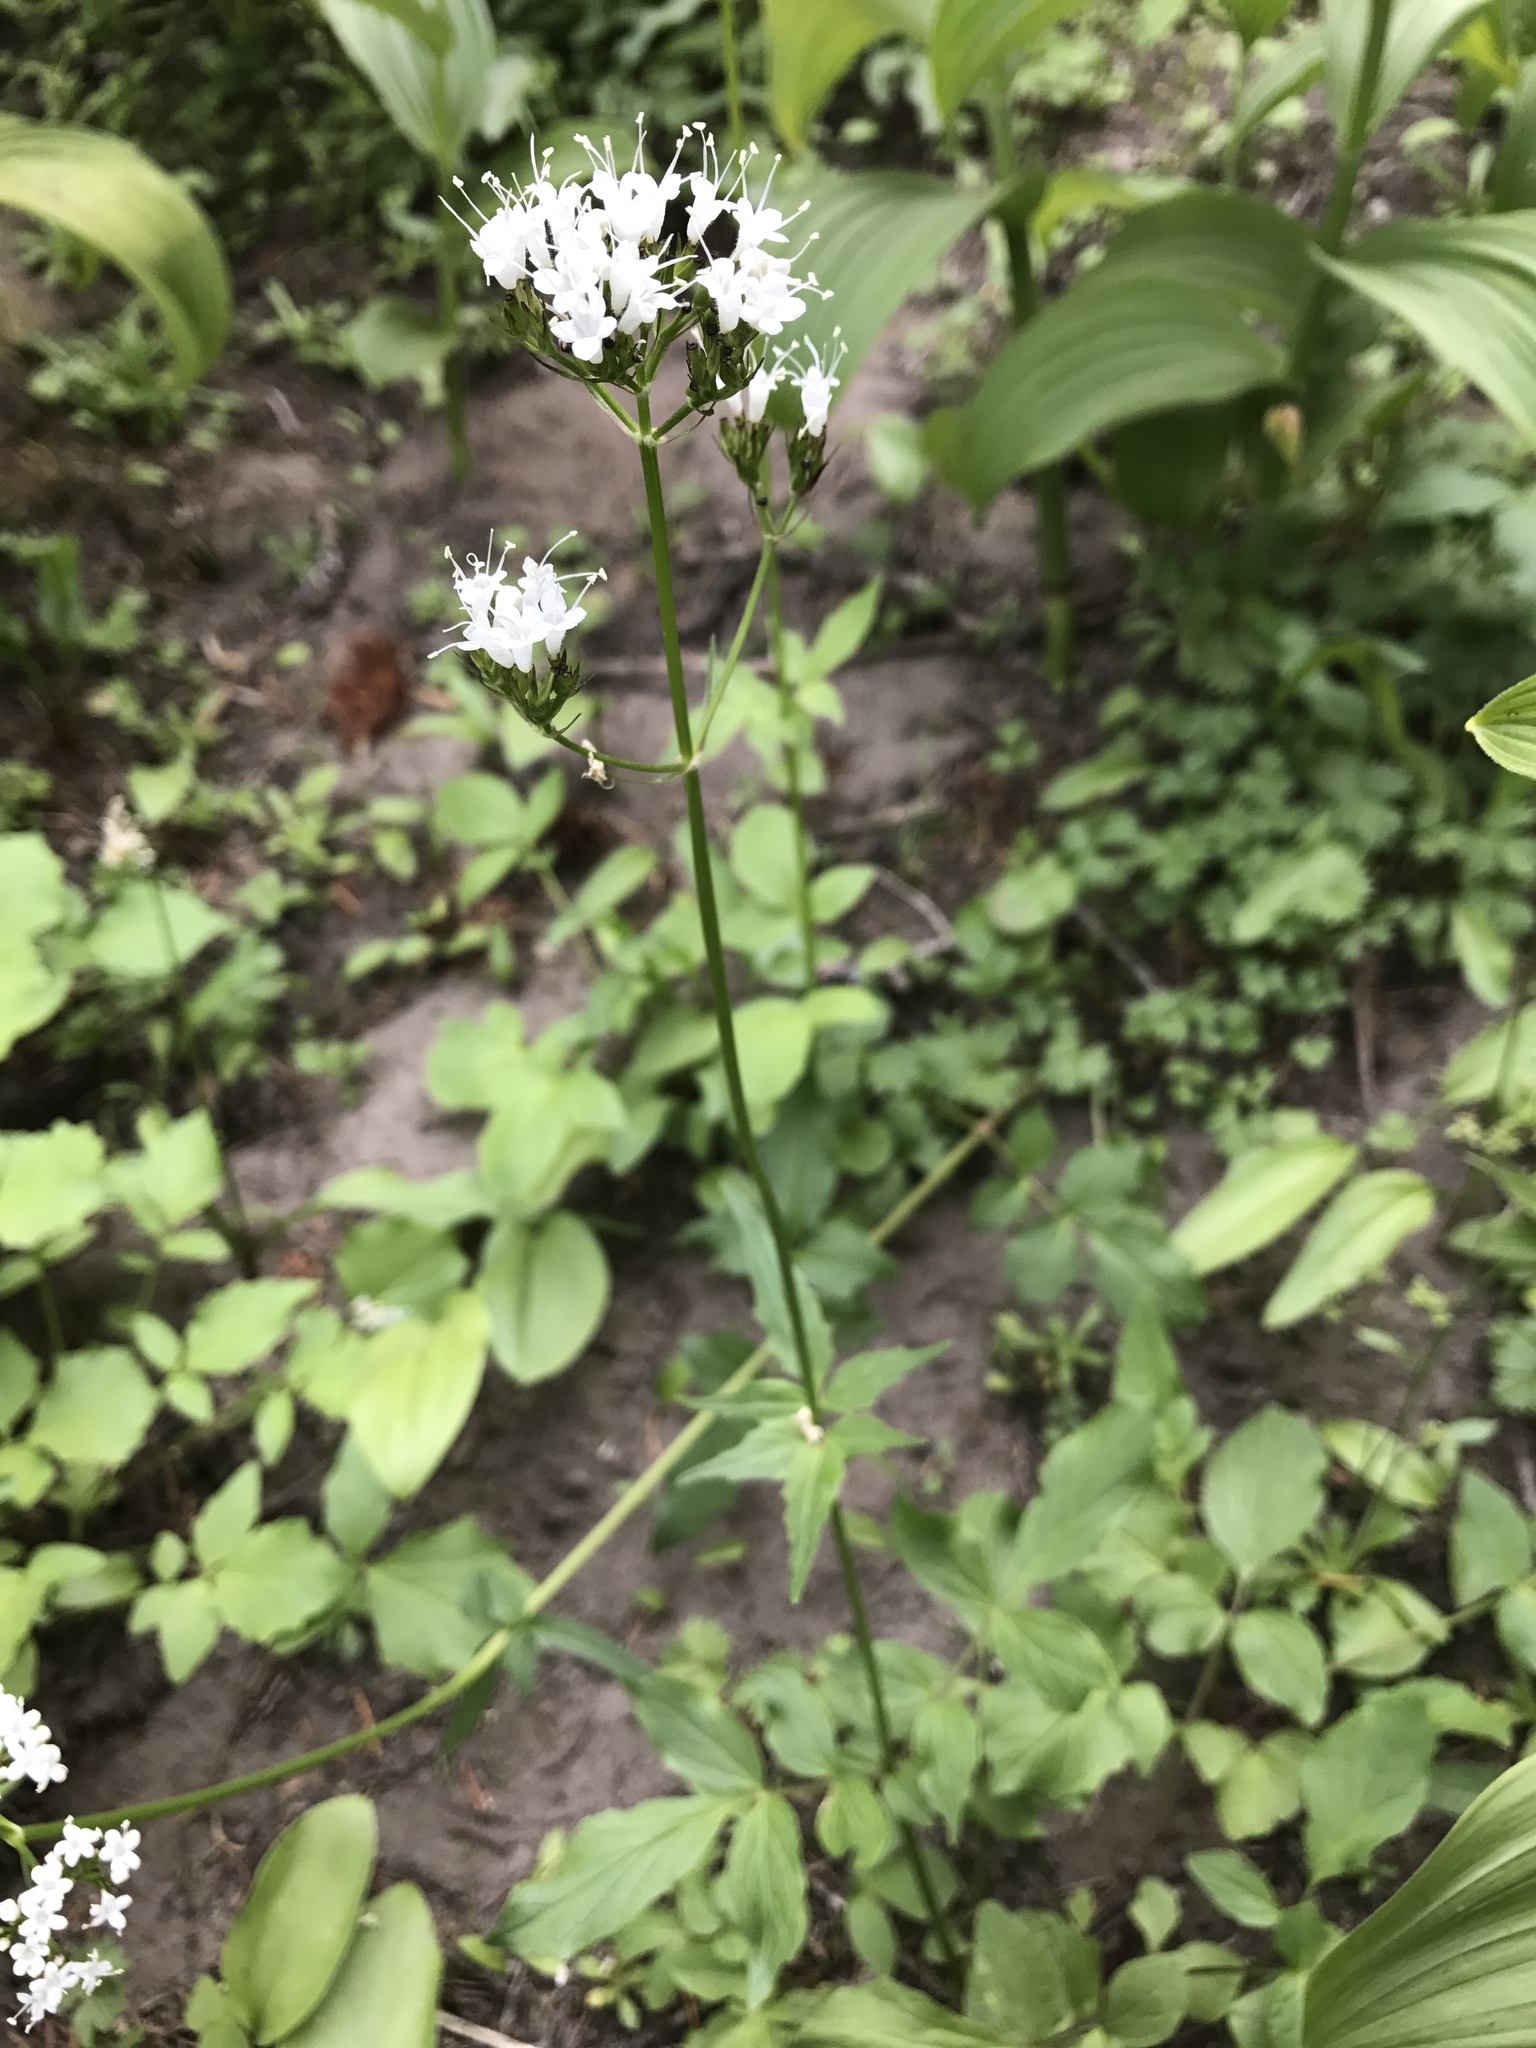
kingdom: Plantae
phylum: Tracheophyta
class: Magnoliopsida
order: Dipsacales
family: Caprifoliaceae
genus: Valeriana
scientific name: Valeriana sitchensis
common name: Pacific valerian
